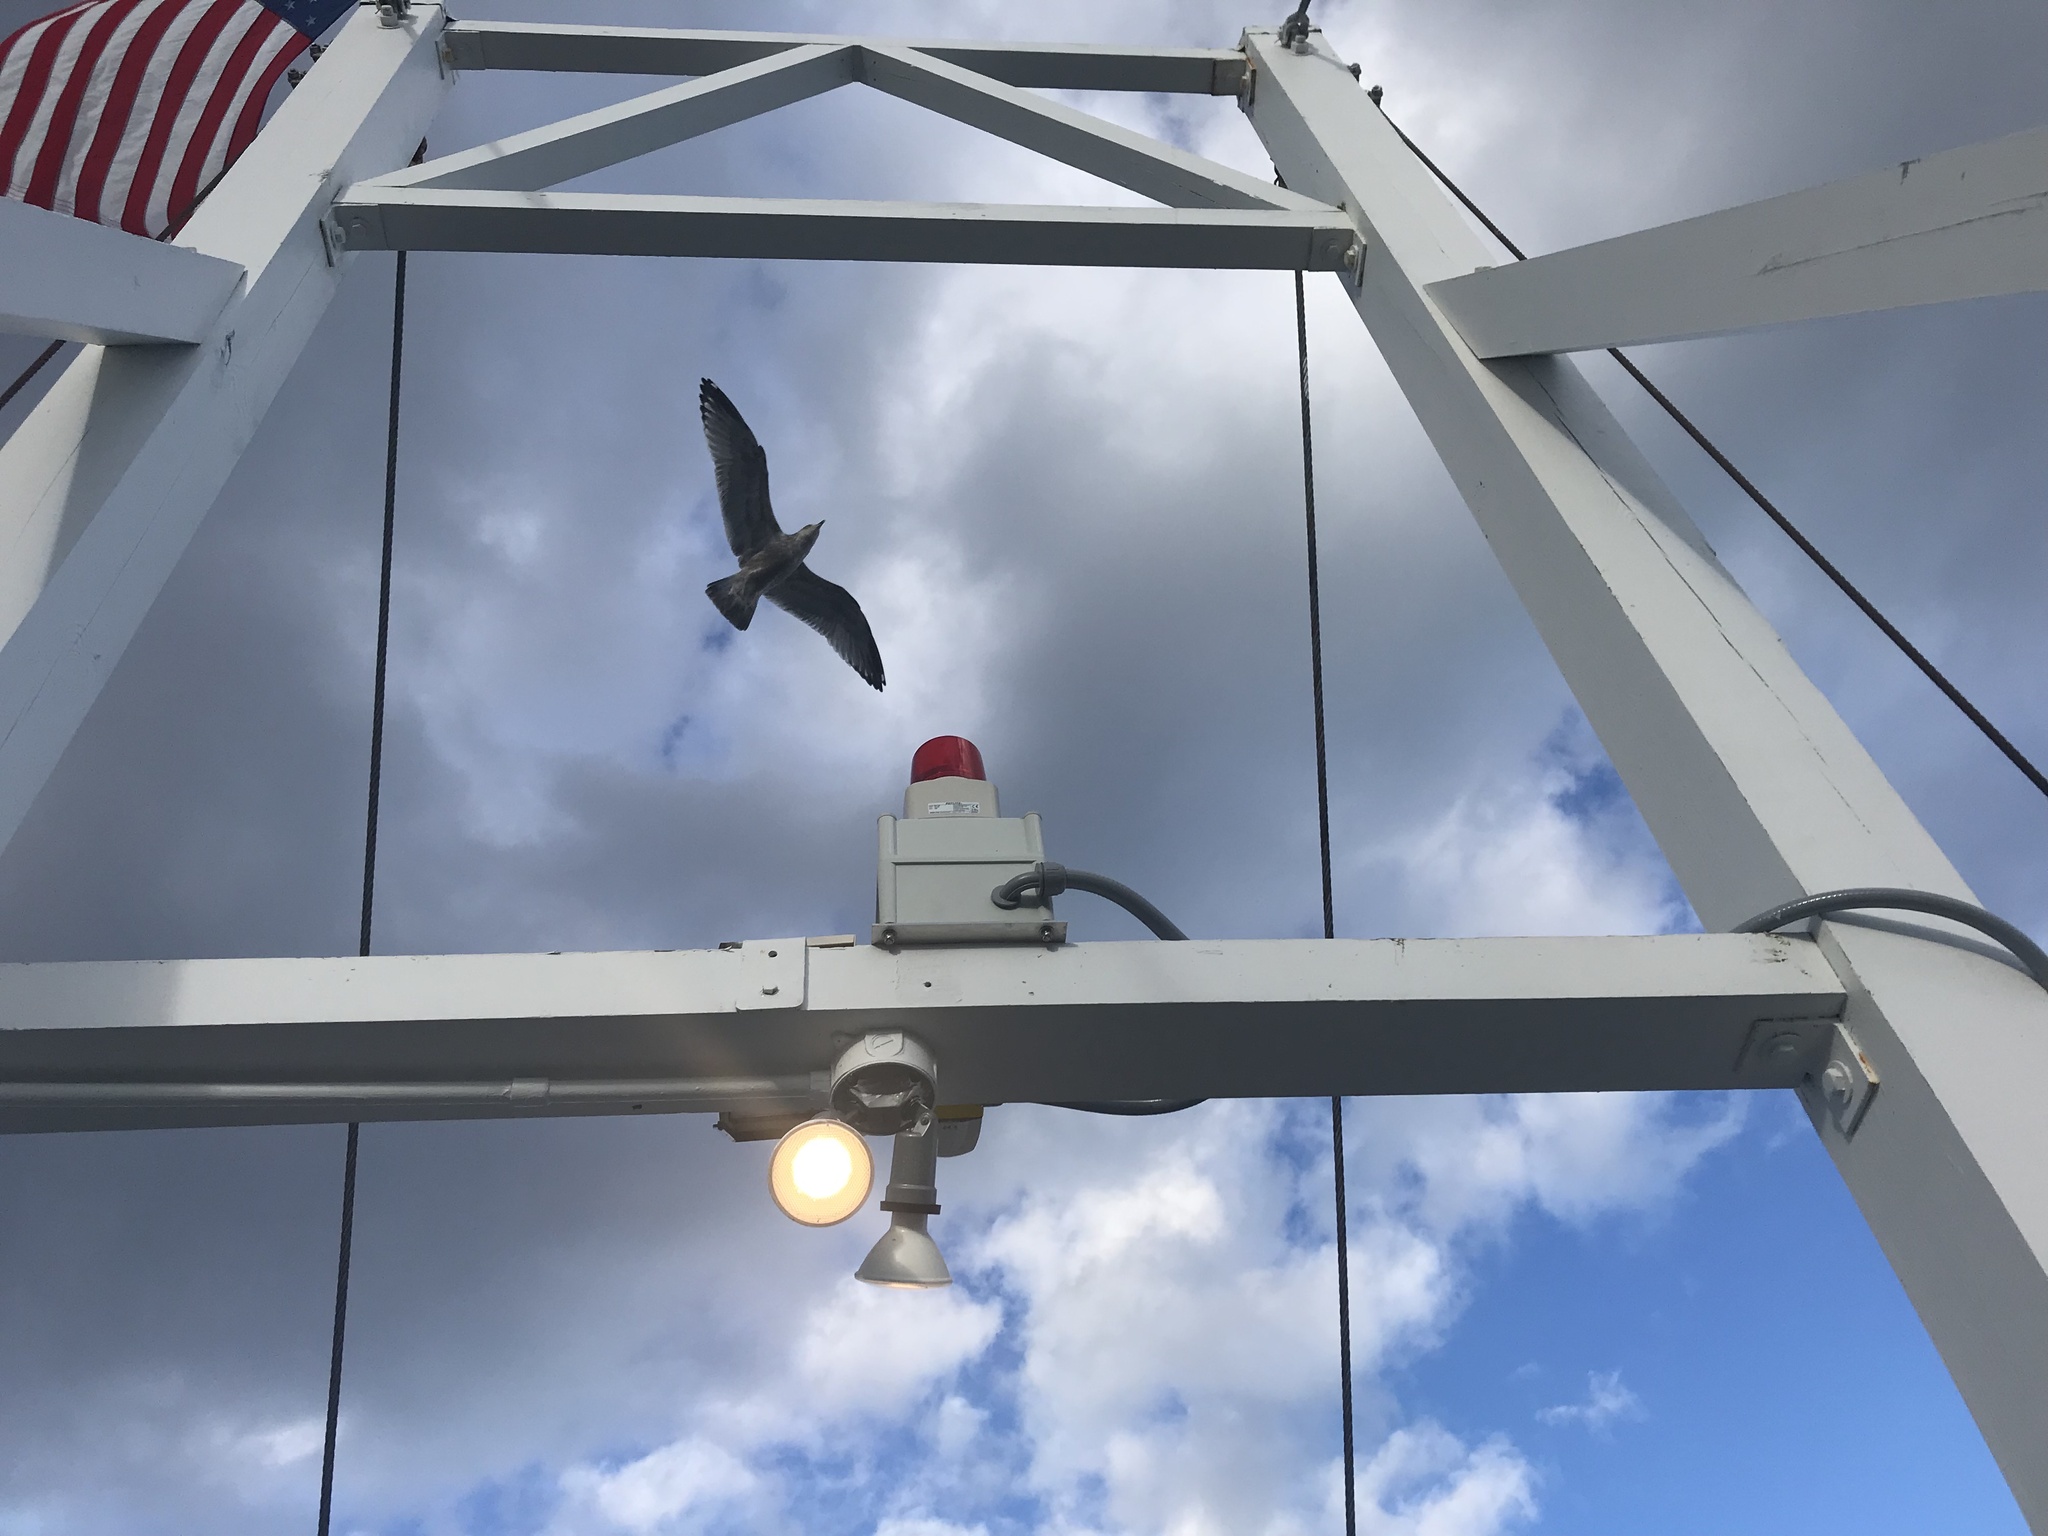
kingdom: Animalia
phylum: Chordata
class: Aves
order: Charadriiformes
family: Laridae
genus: Larus
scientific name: Larus argentatus
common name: Herring gull
